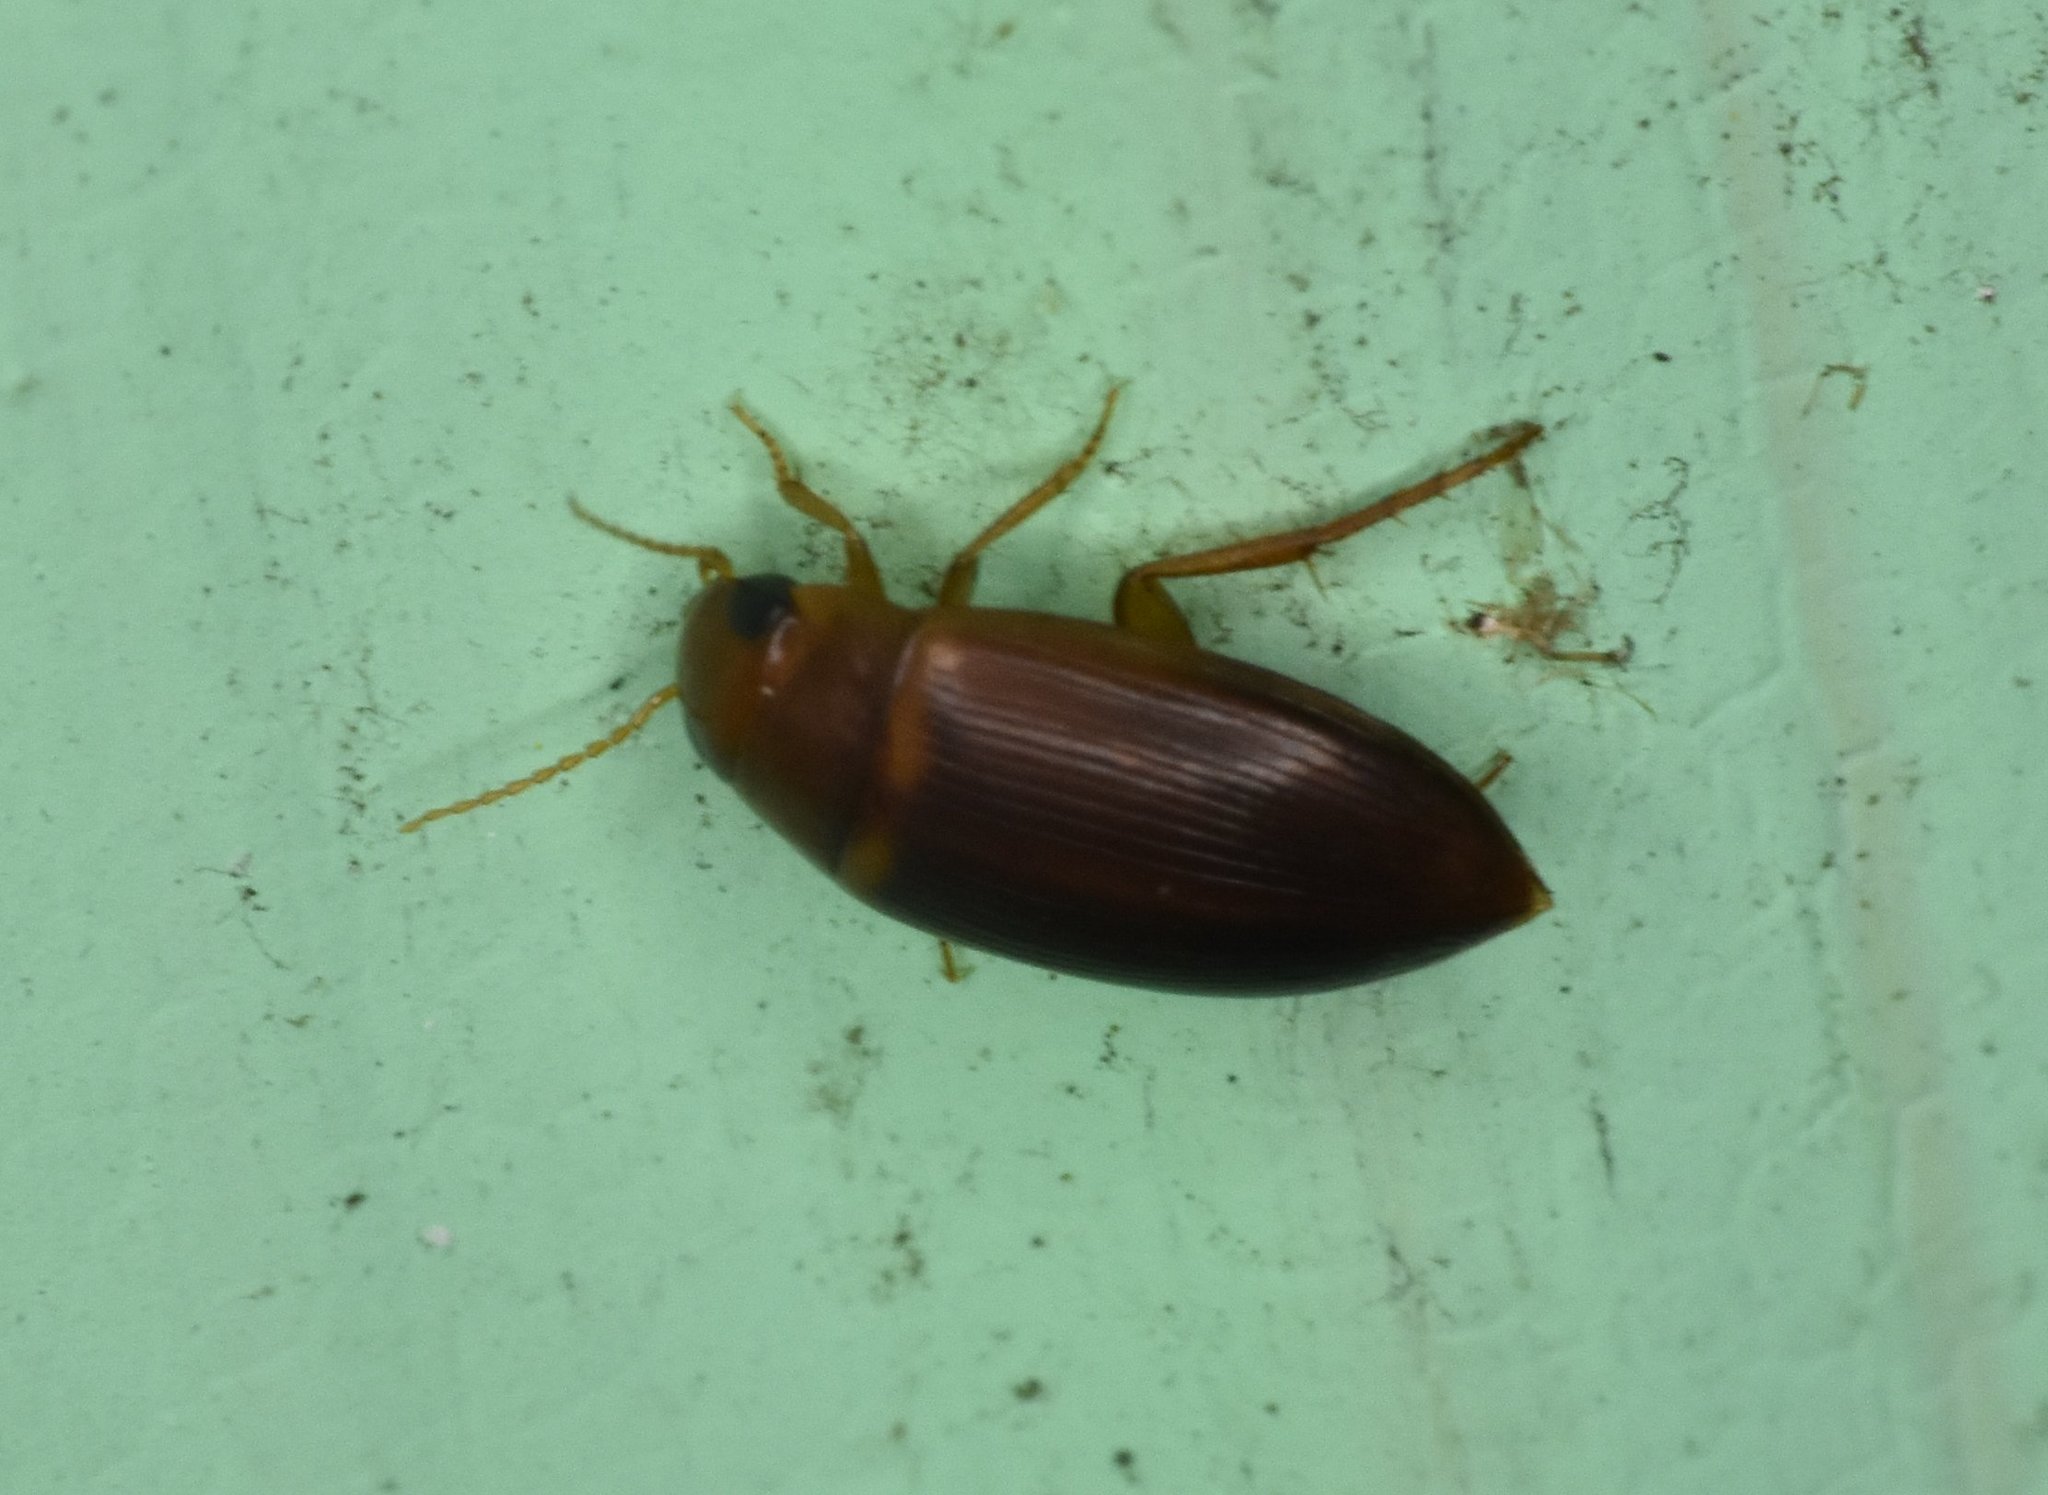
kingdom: Animalia
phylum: Arthropoda
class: Insecta
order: Coleoptera
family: Dytiscidae
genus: Copelatus
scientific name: Copelatus caelatipennis
